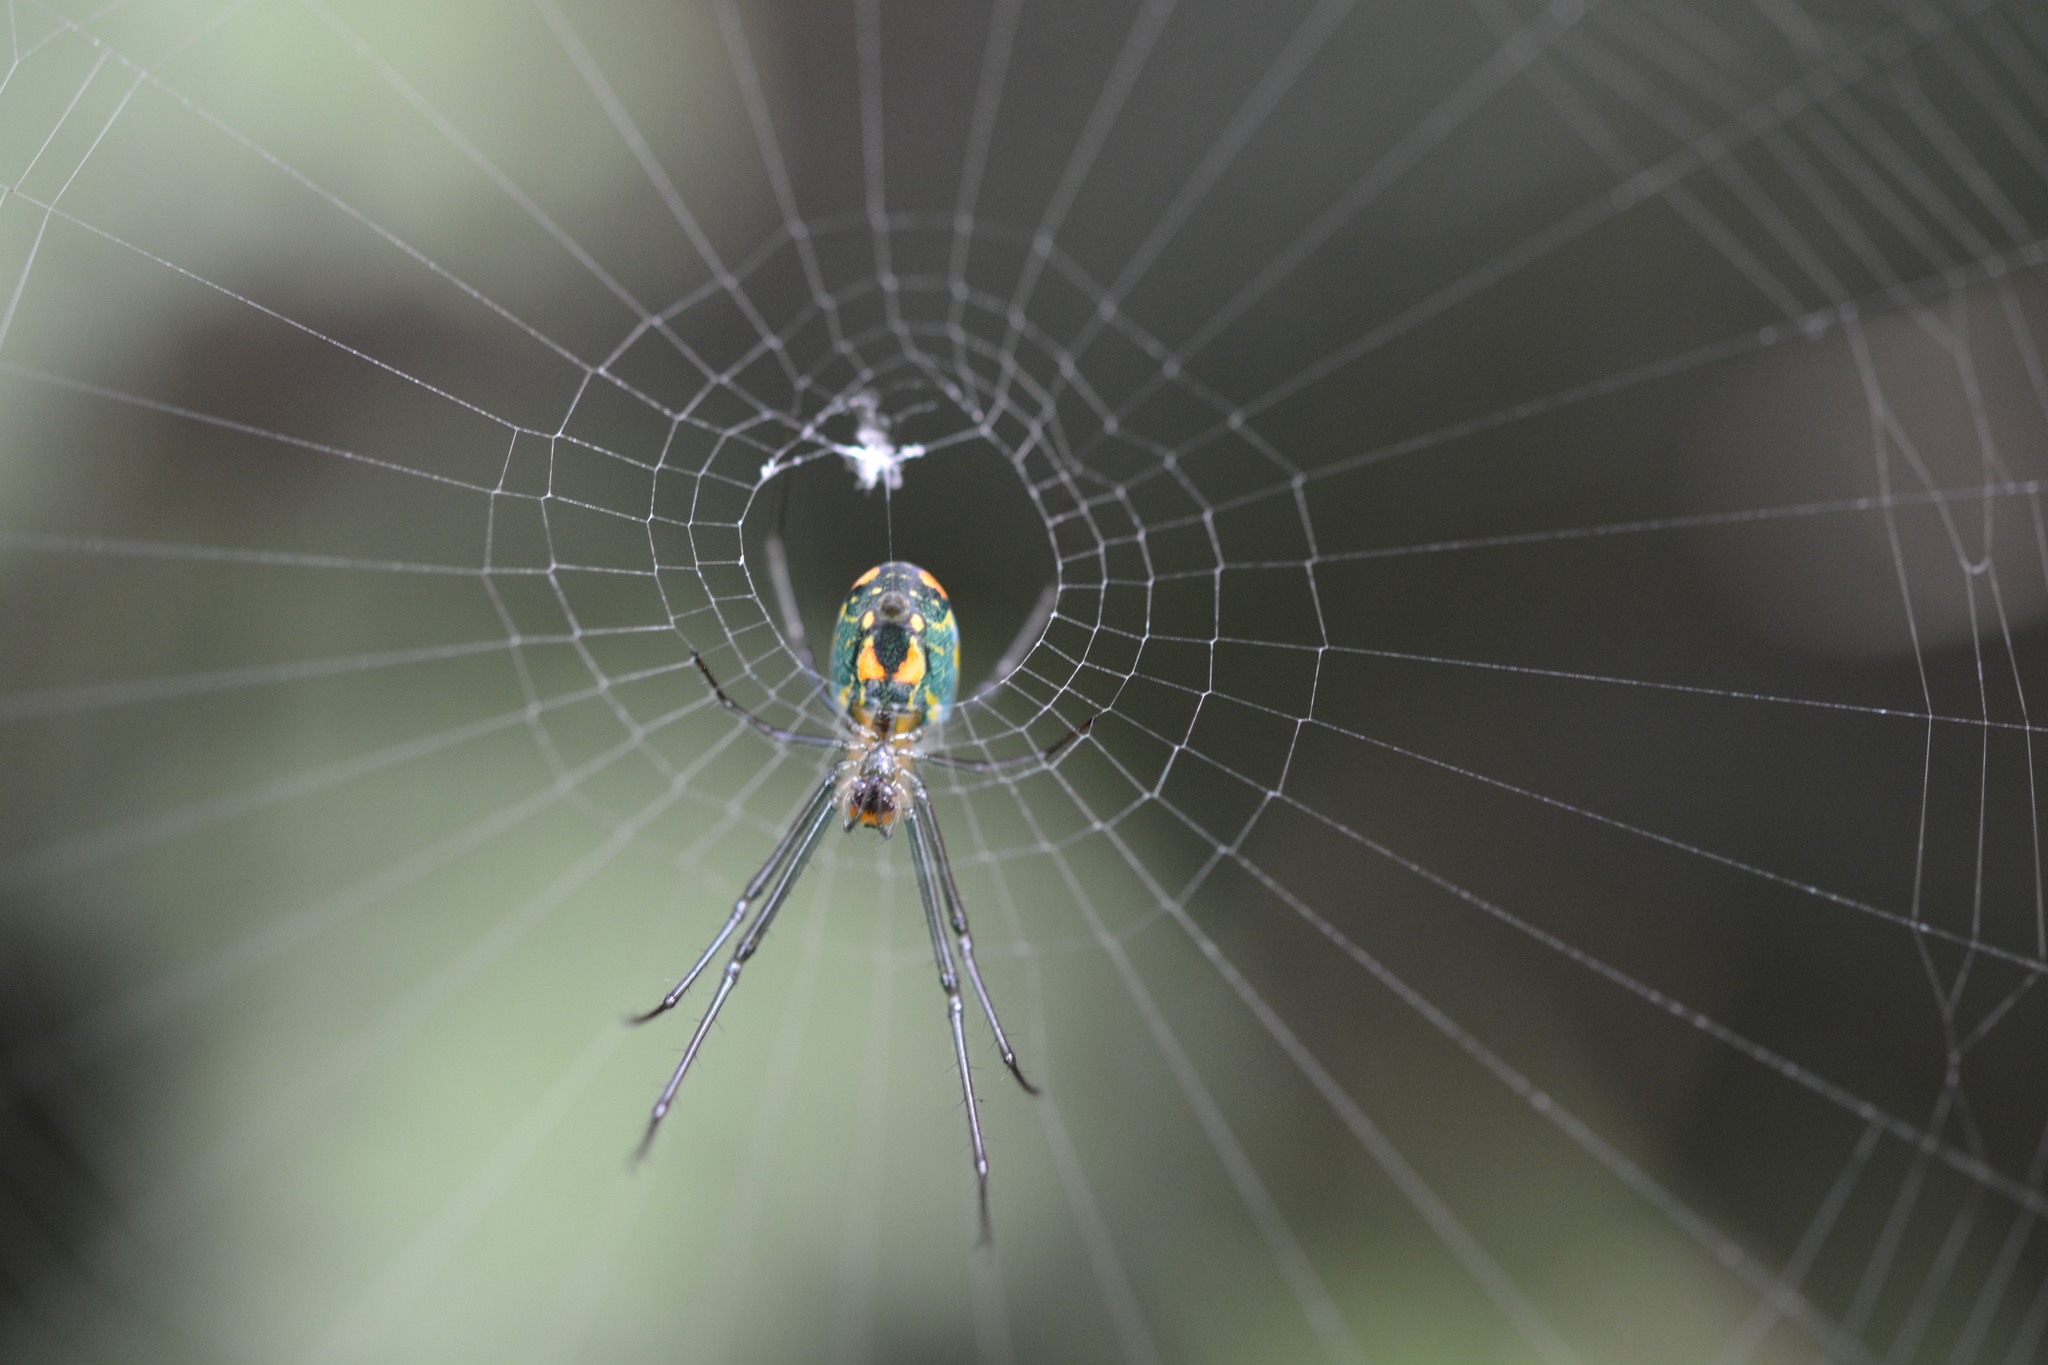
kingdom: Animalia
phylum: Arthropoda
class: Arachnida
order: Araneae
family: Tetragnathidae
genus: Leucauge
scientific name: Leucauge argyrobapta
